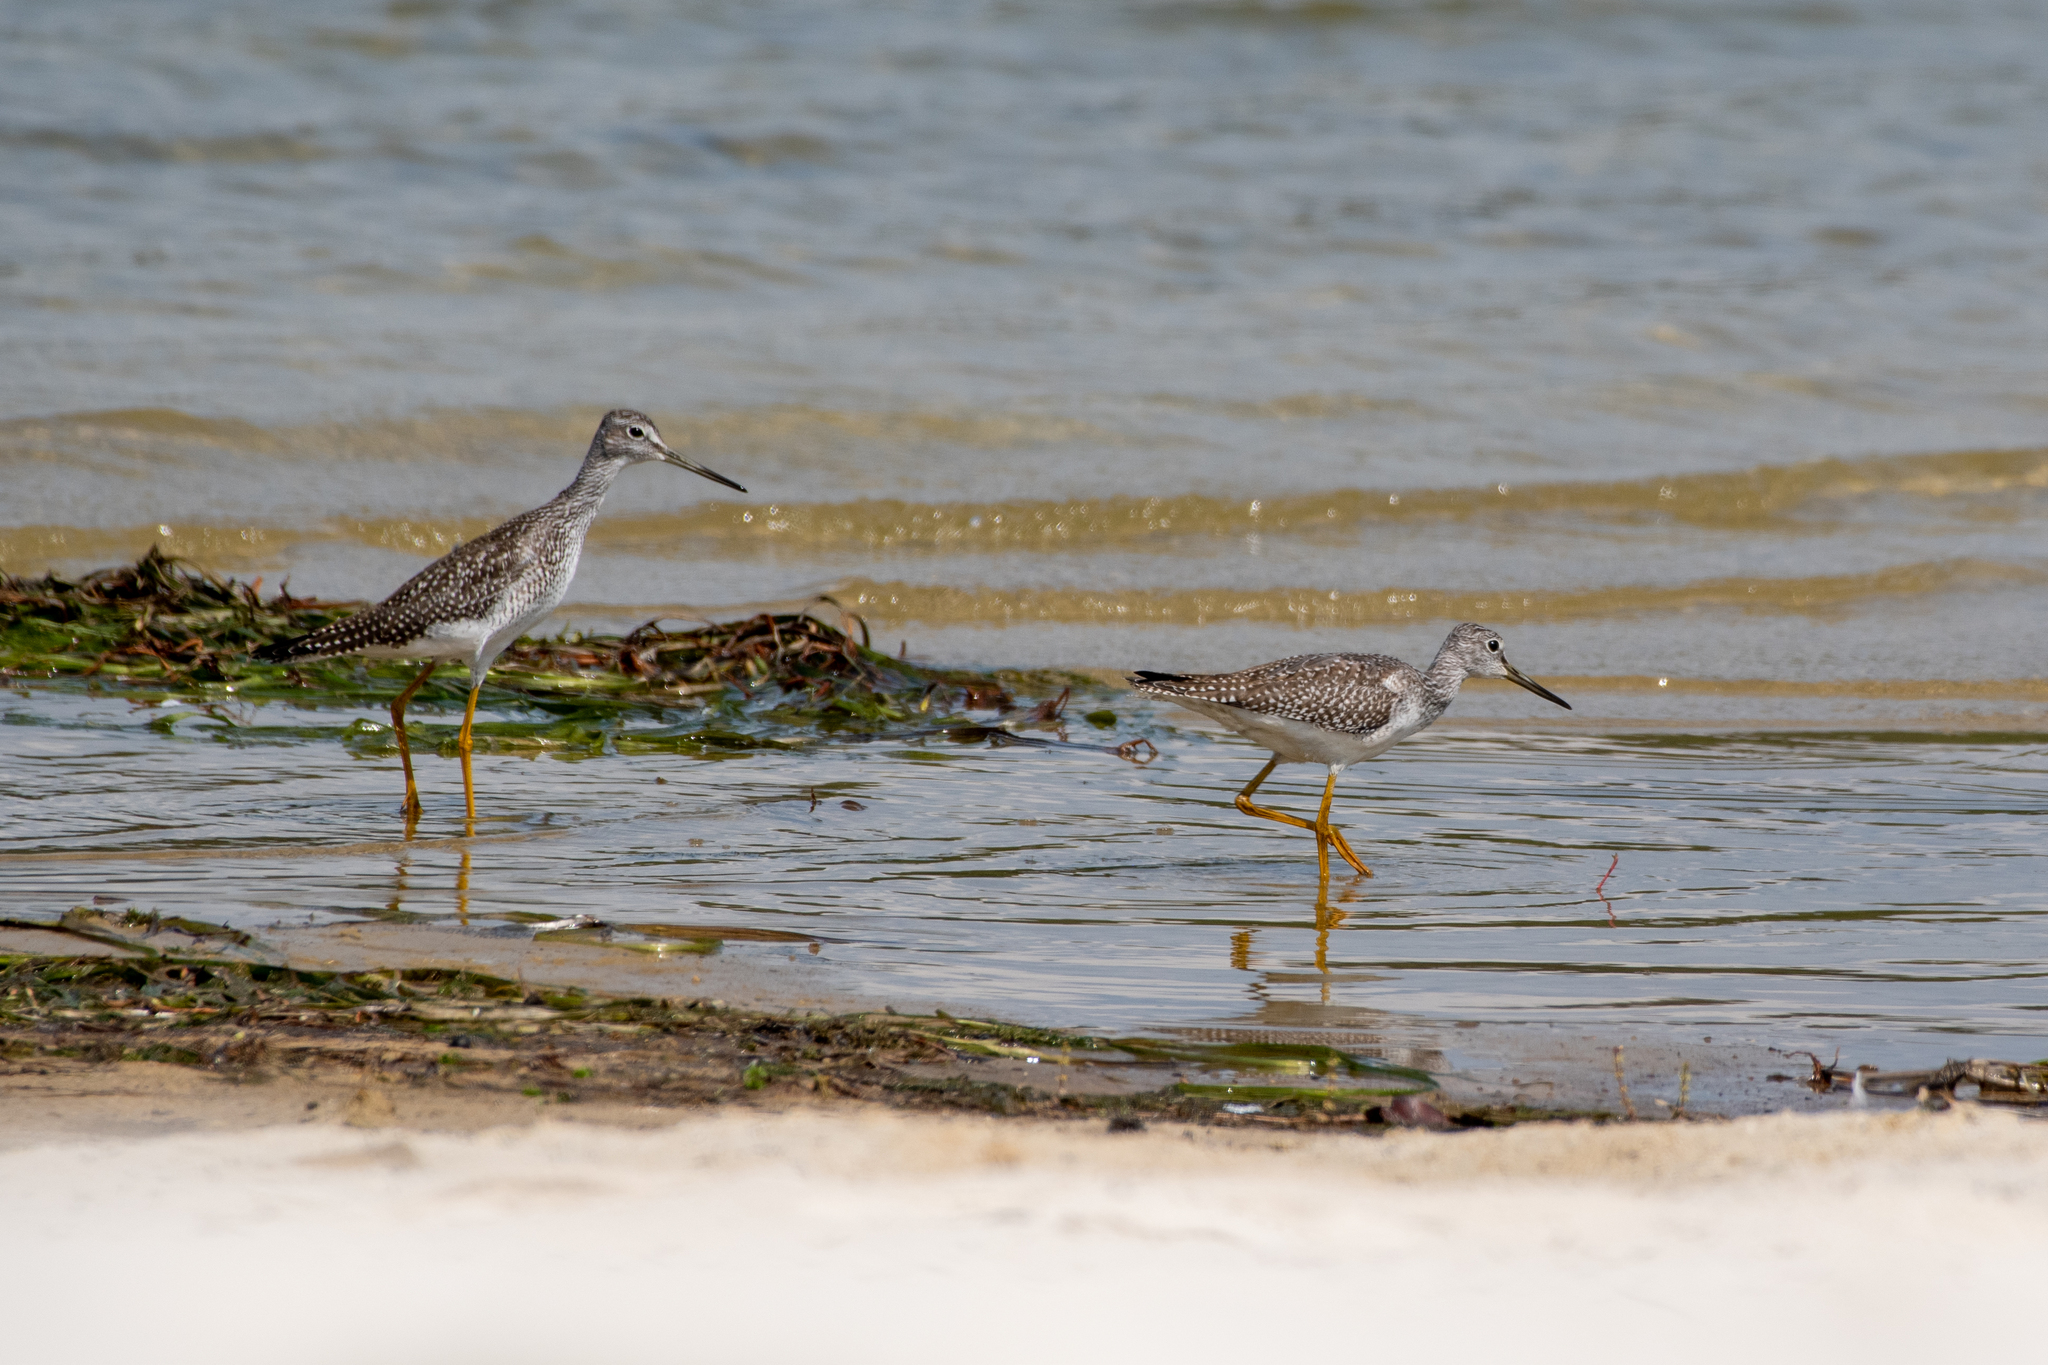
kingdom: Animalia
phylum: Chordata
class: Aves
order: Charadriiformes
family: Scolopacidae
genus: Tringa
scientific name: Tringa melanoleuca
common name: Greater yellowlegs
